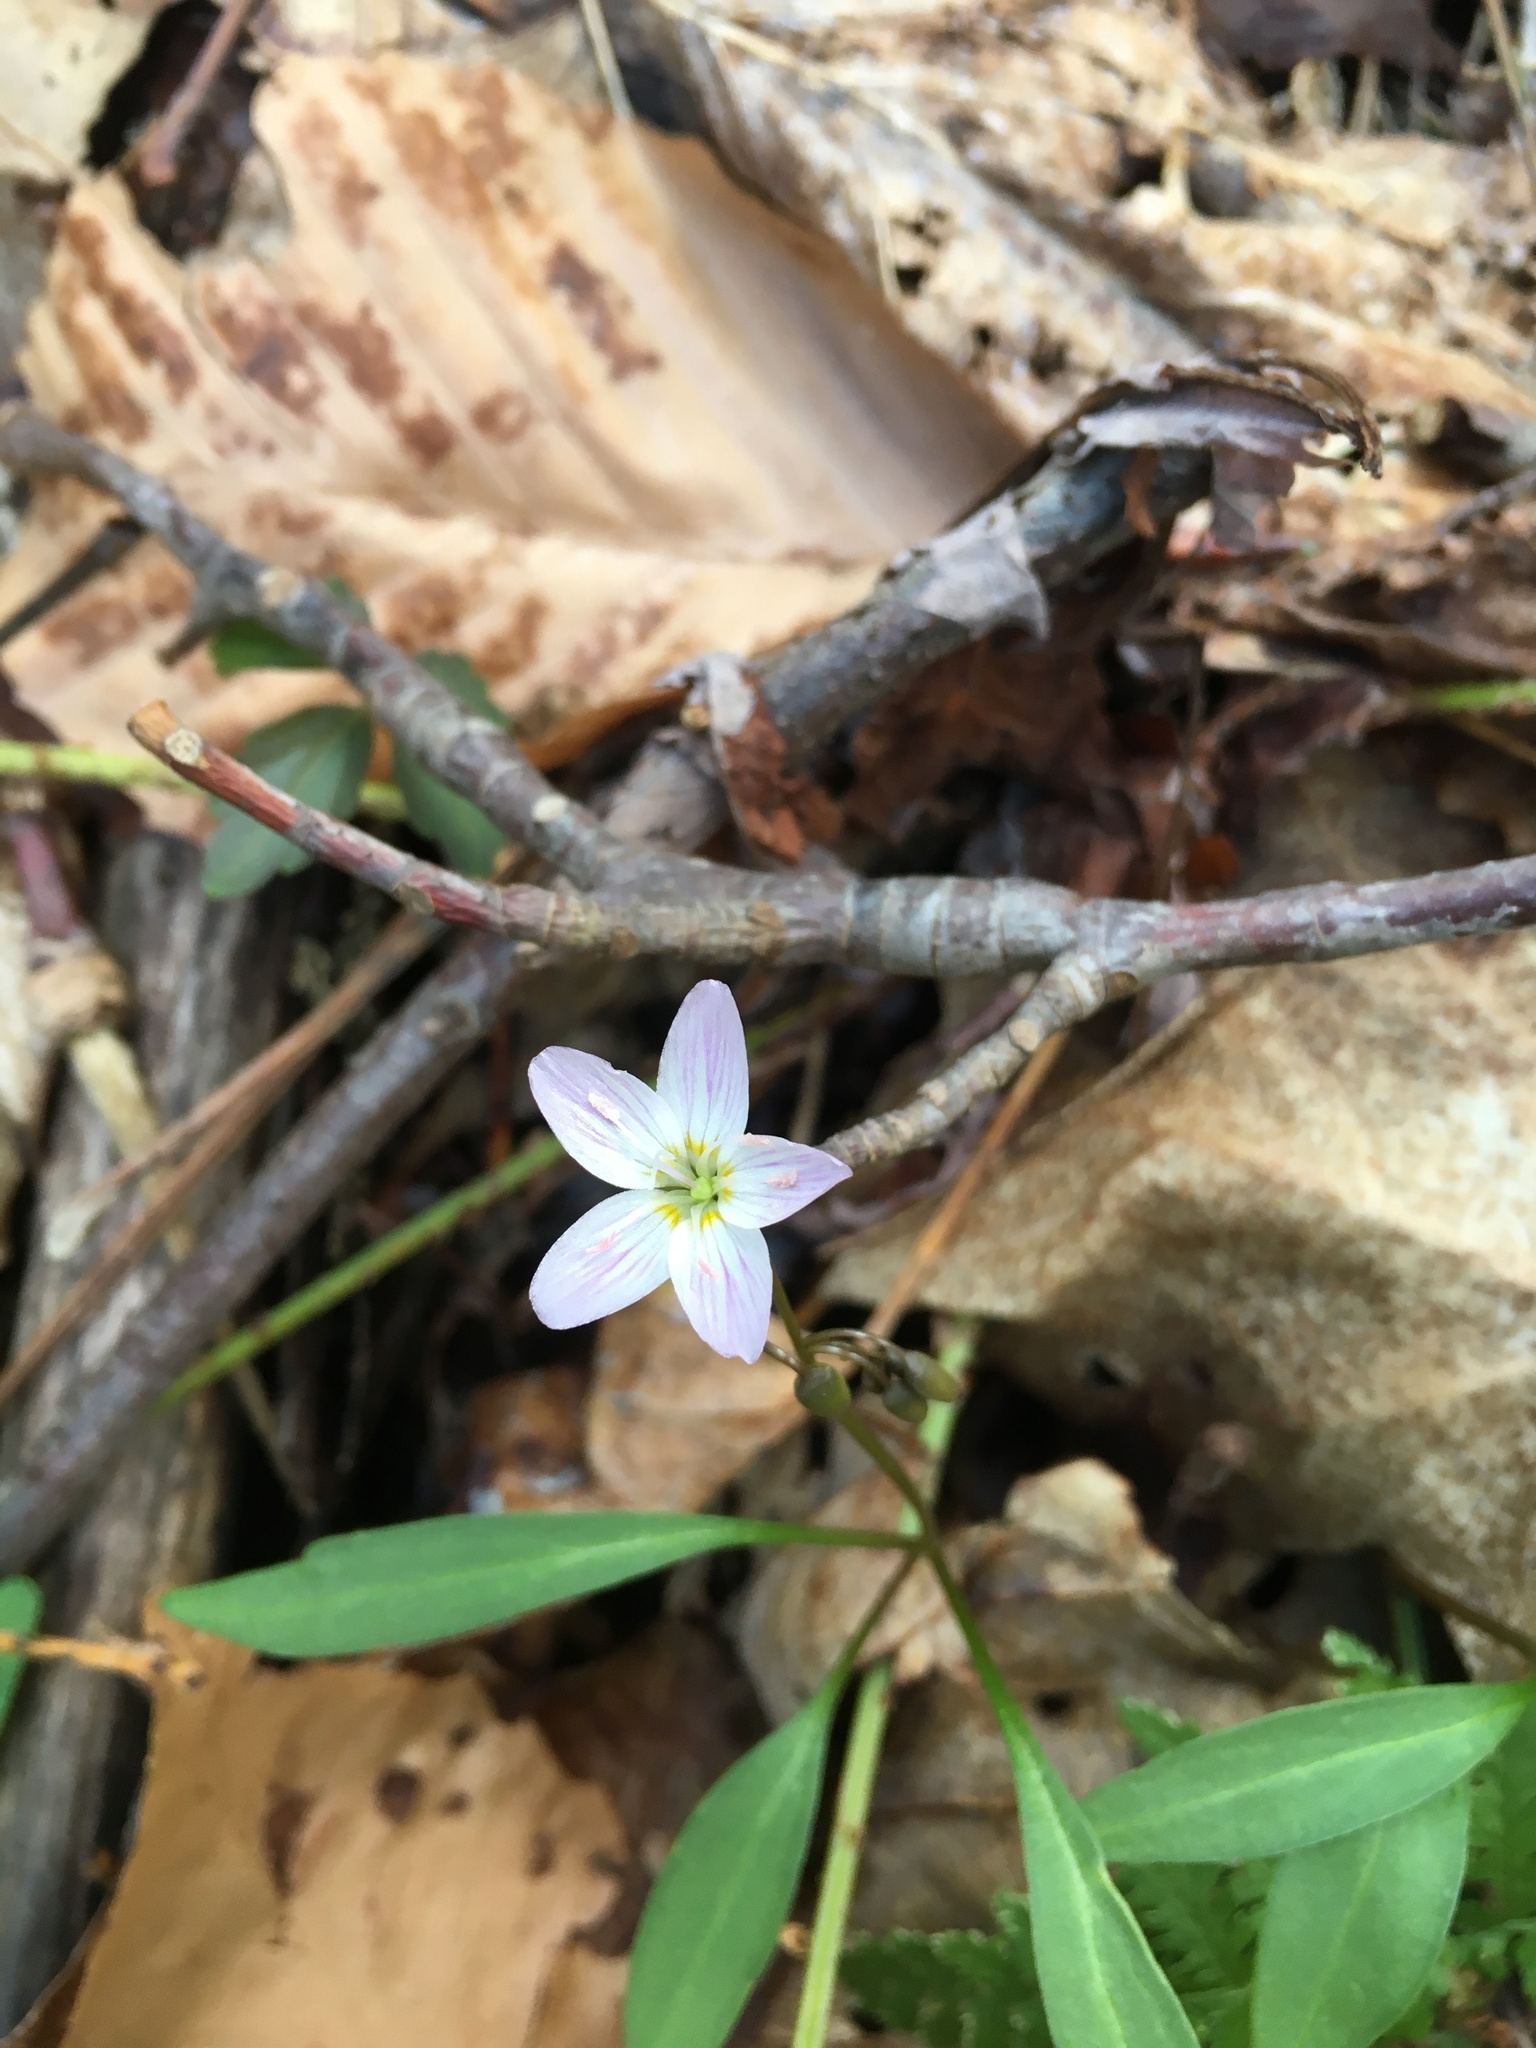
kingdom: Plantae
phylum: Tracheophyta
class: Magnoliopsida
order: Caryophyllales
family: Montiaceae
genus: Claytonia
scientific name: Claytonia caroliniana
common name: Carolina spring beauty
